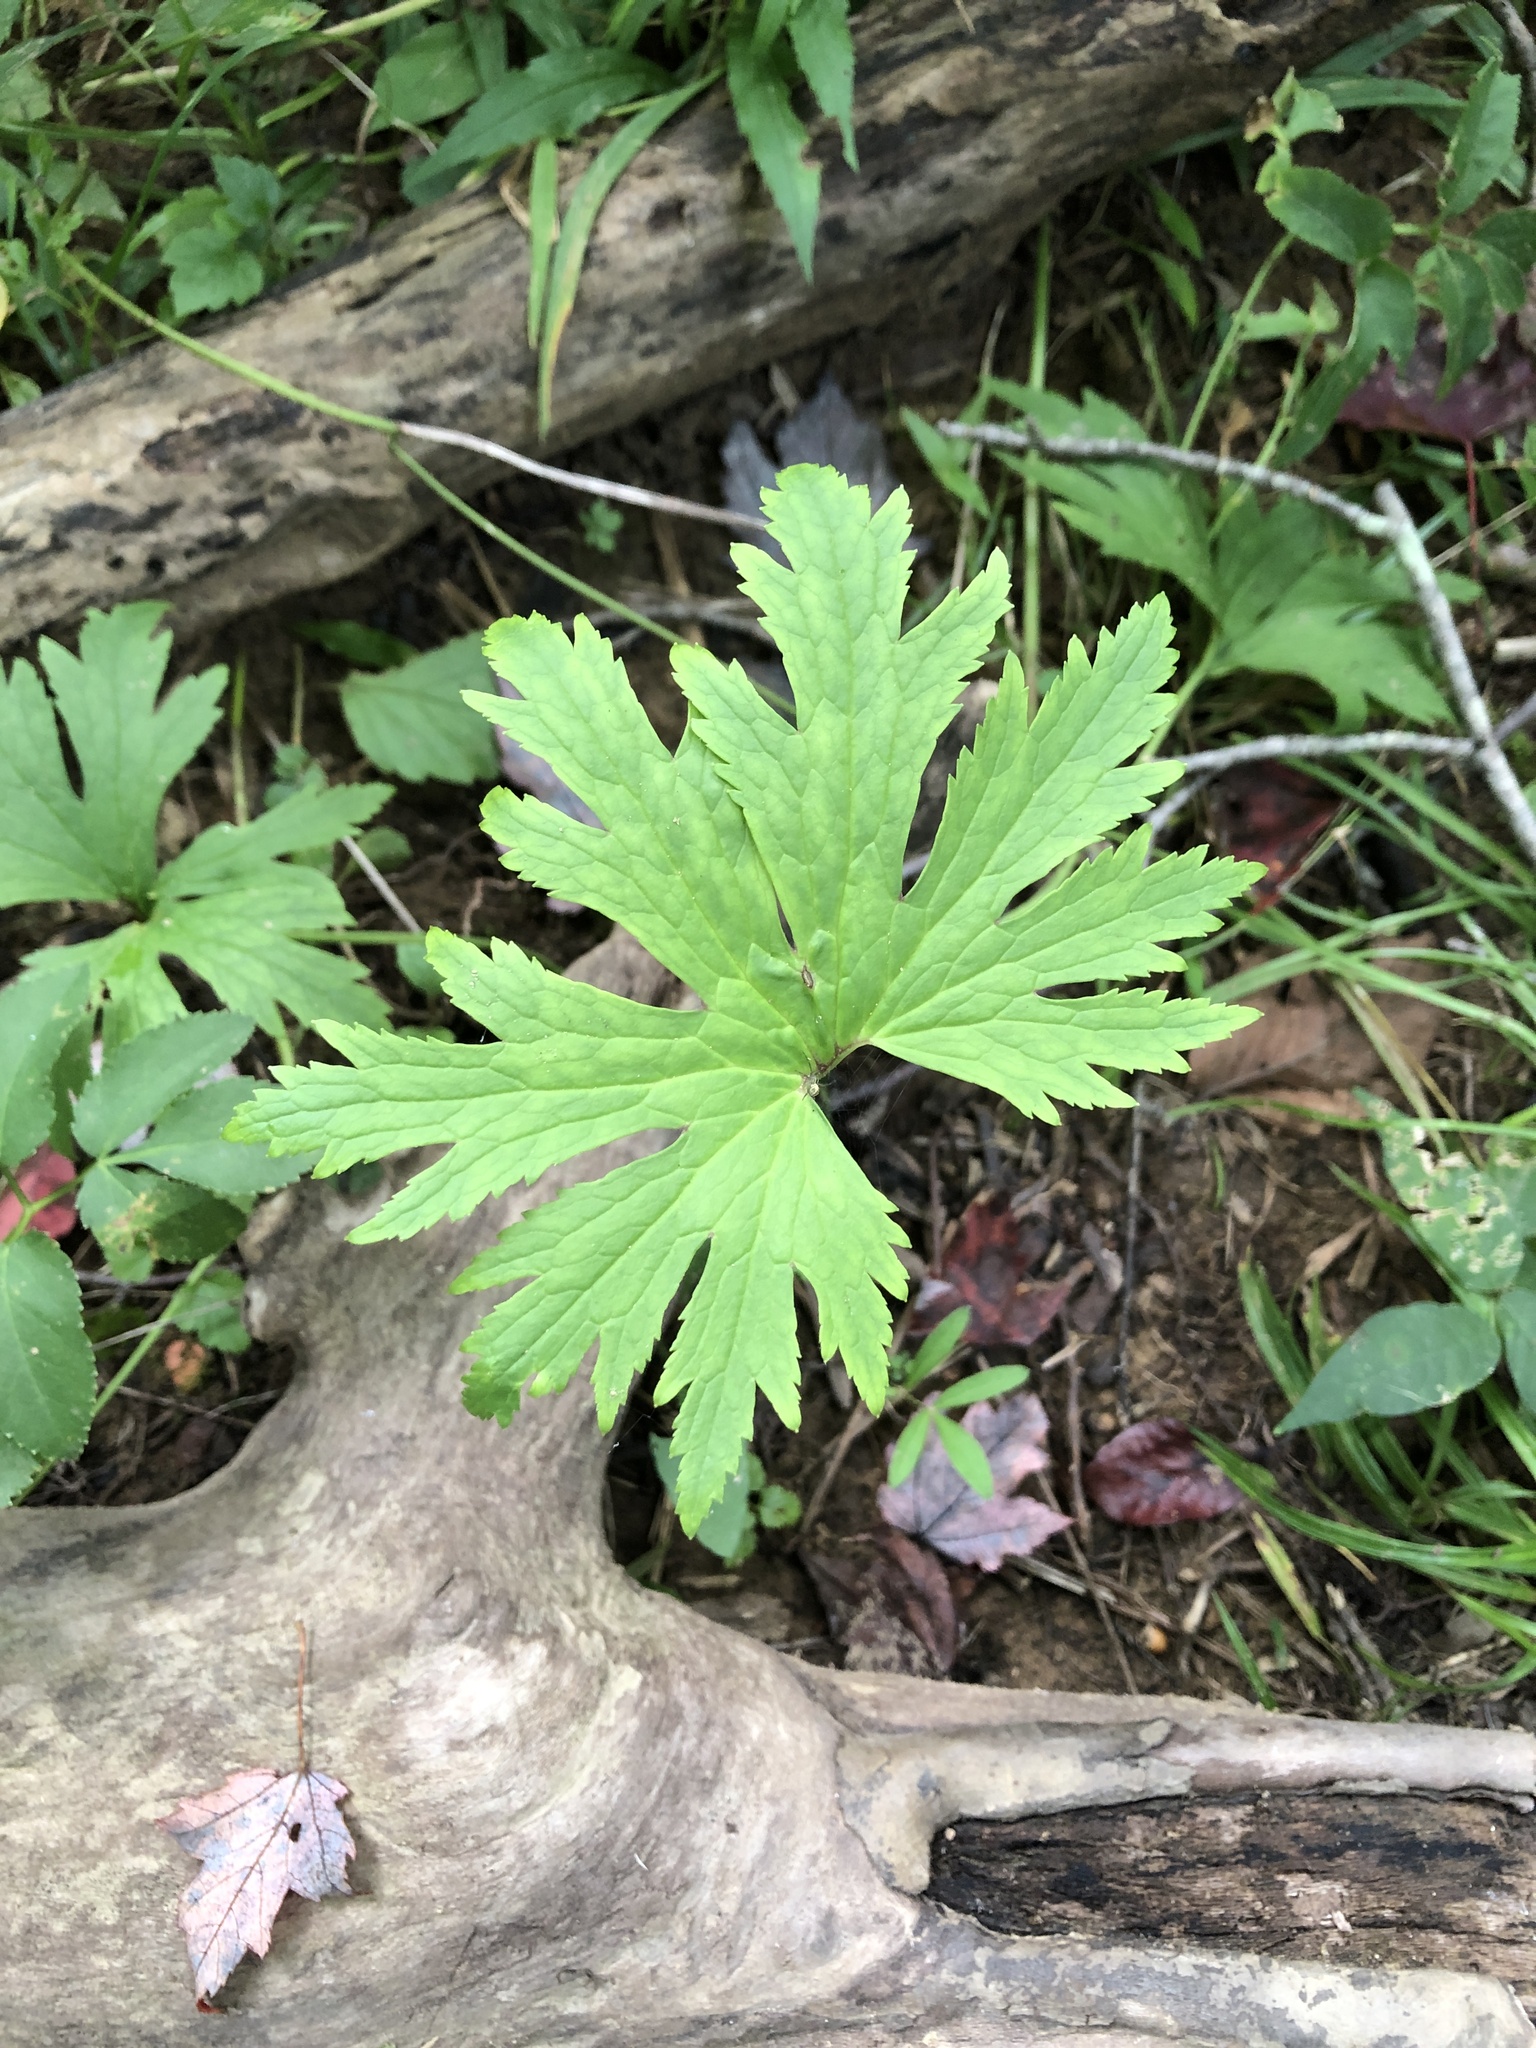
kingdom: Plantae
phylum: Tracheophyta
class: Magnoliopsida
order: Ranunculales
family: Ranunculaceae
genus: Trautvetteria
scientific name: Trautvetteria carolinensis
